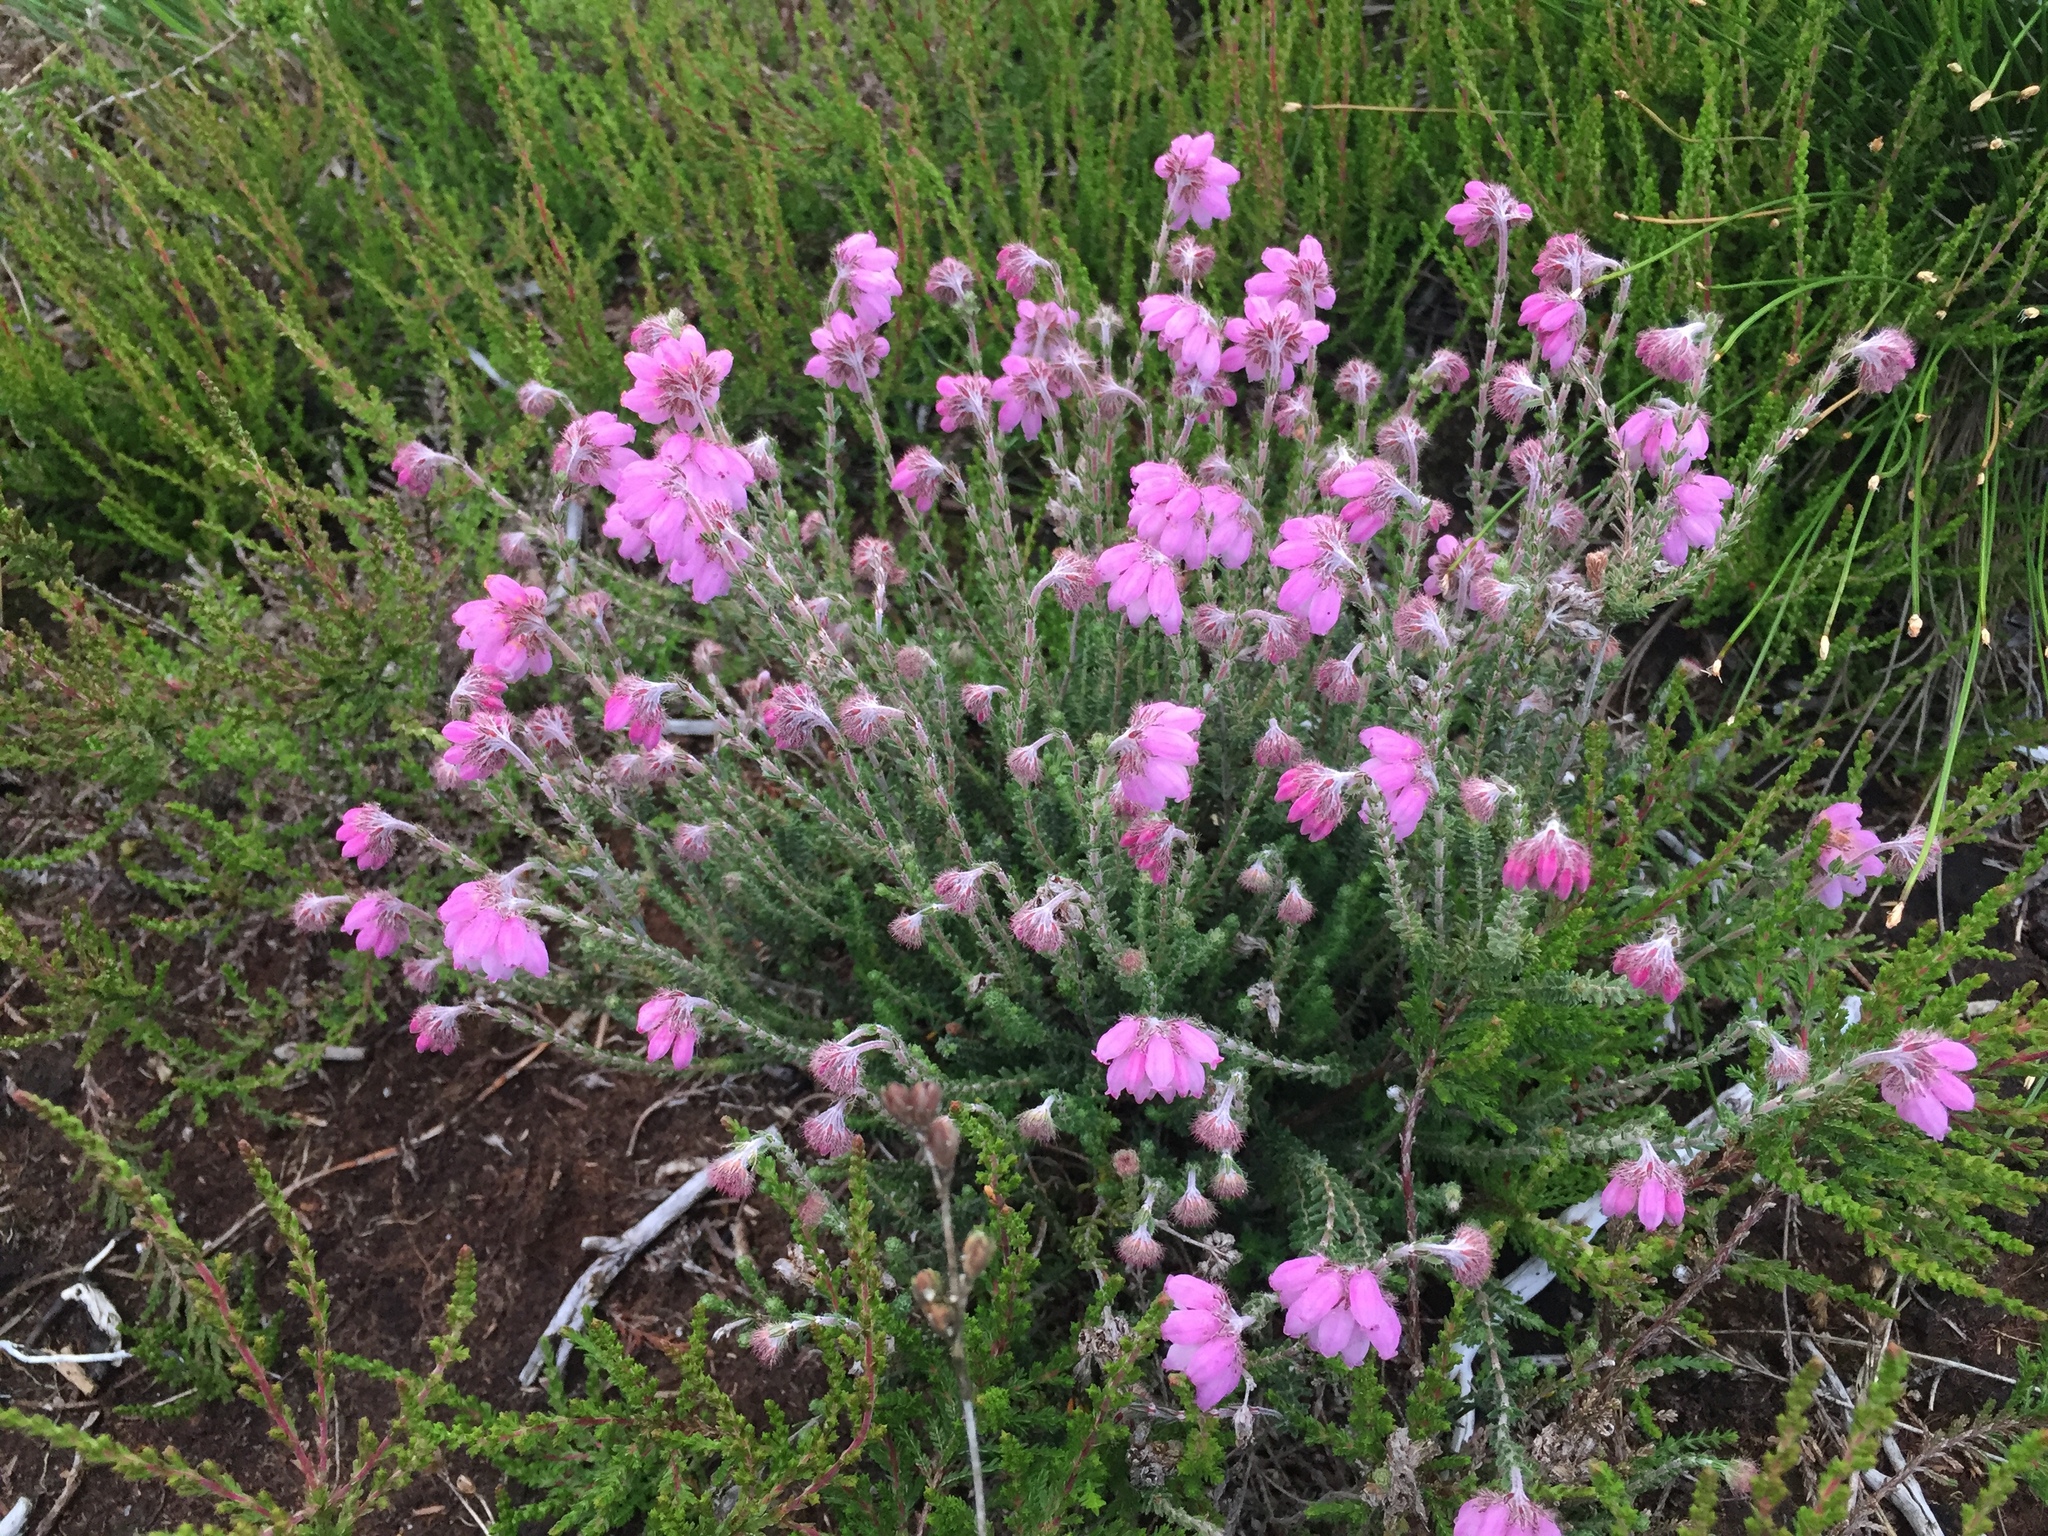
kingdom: Plantae
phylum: Tracheophyta
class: Magnoliopsida
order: Ericales
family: Ericaceae
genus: Erica
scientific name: Erica tetralix
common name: Cross-leaved heath
